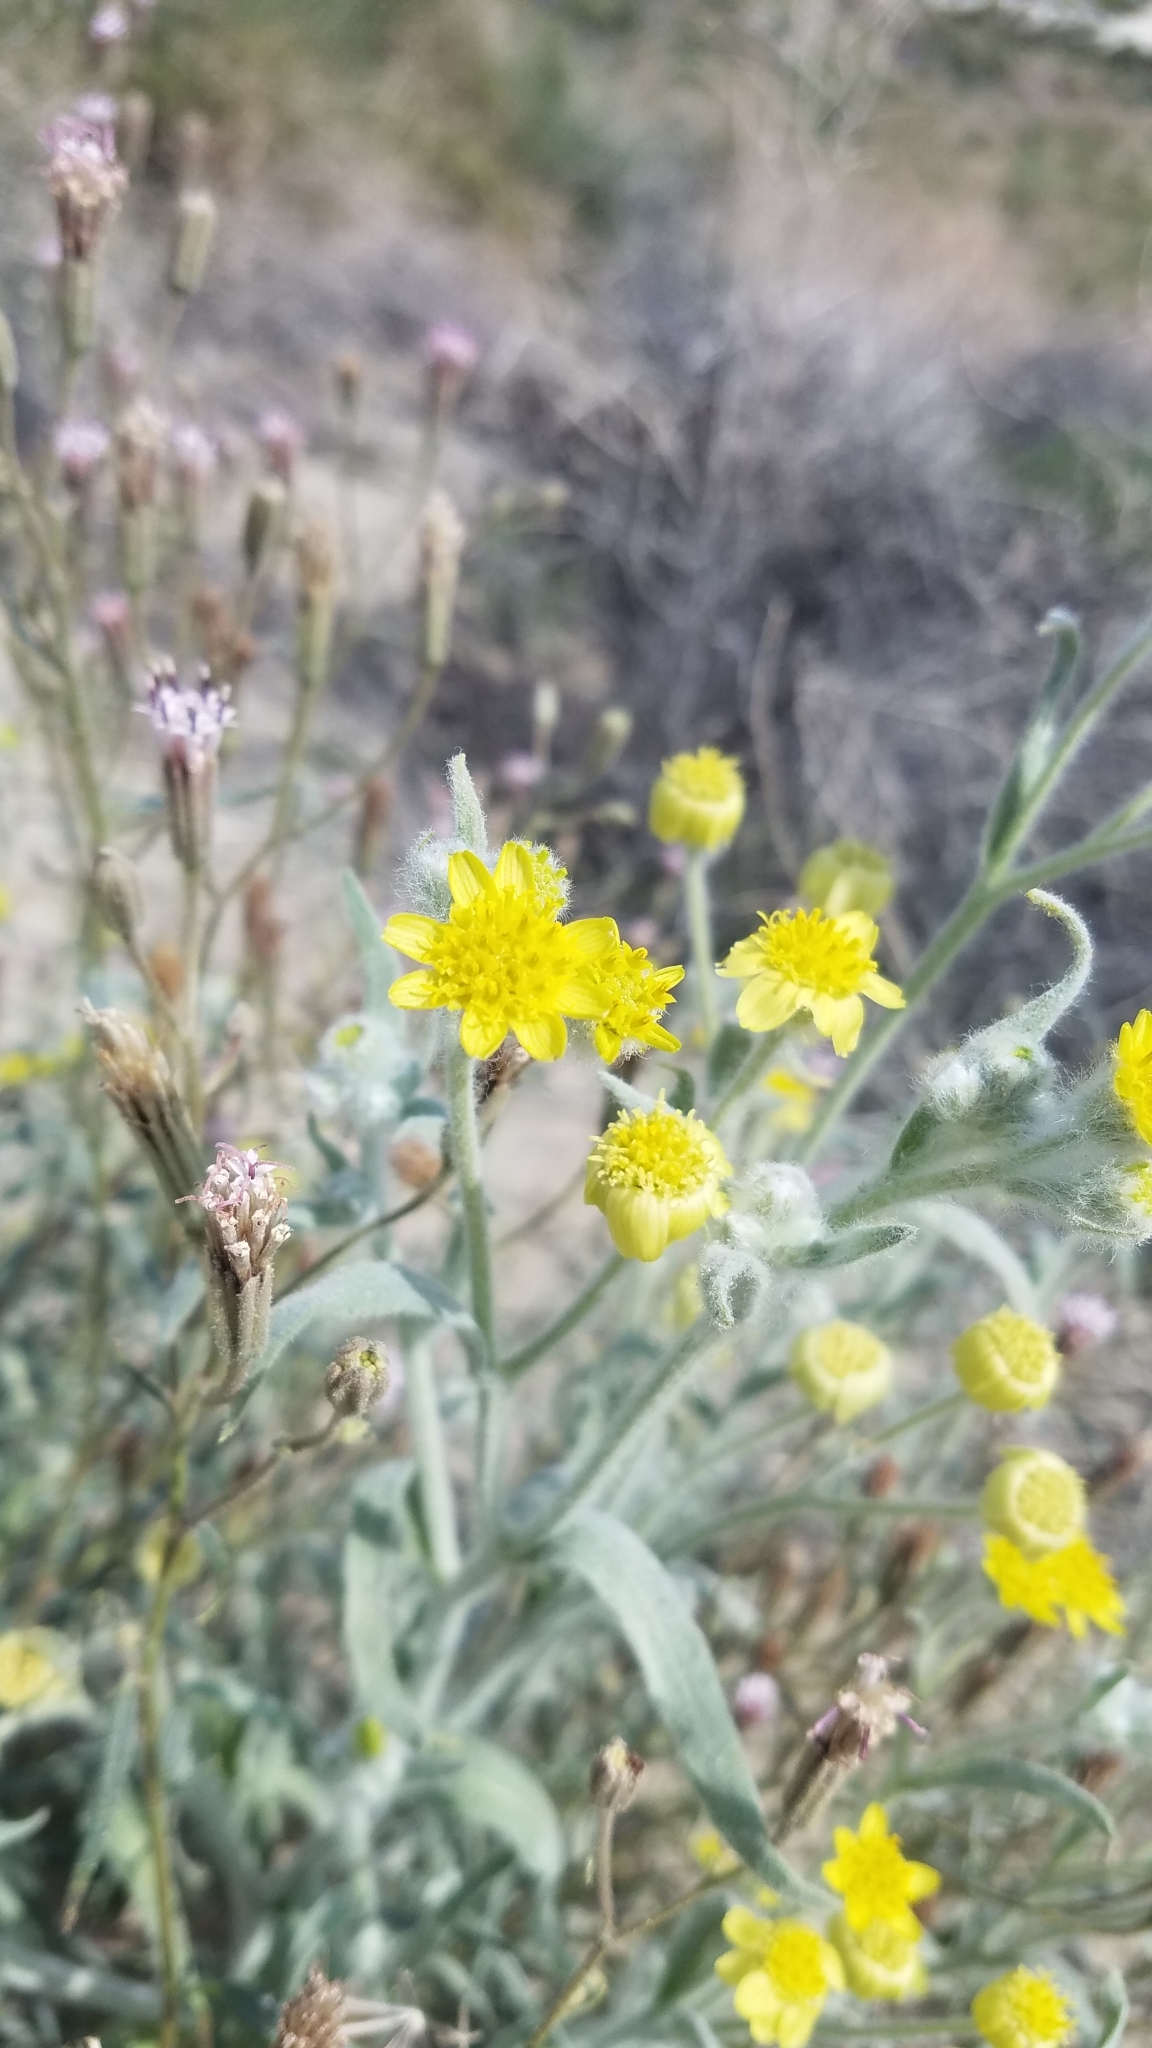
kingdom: Plantae
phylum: Tracheophyta
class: Magnoliopsida
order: Asterales
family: Asteraceae
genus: Baileya
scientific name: Baileya pauciradiata
